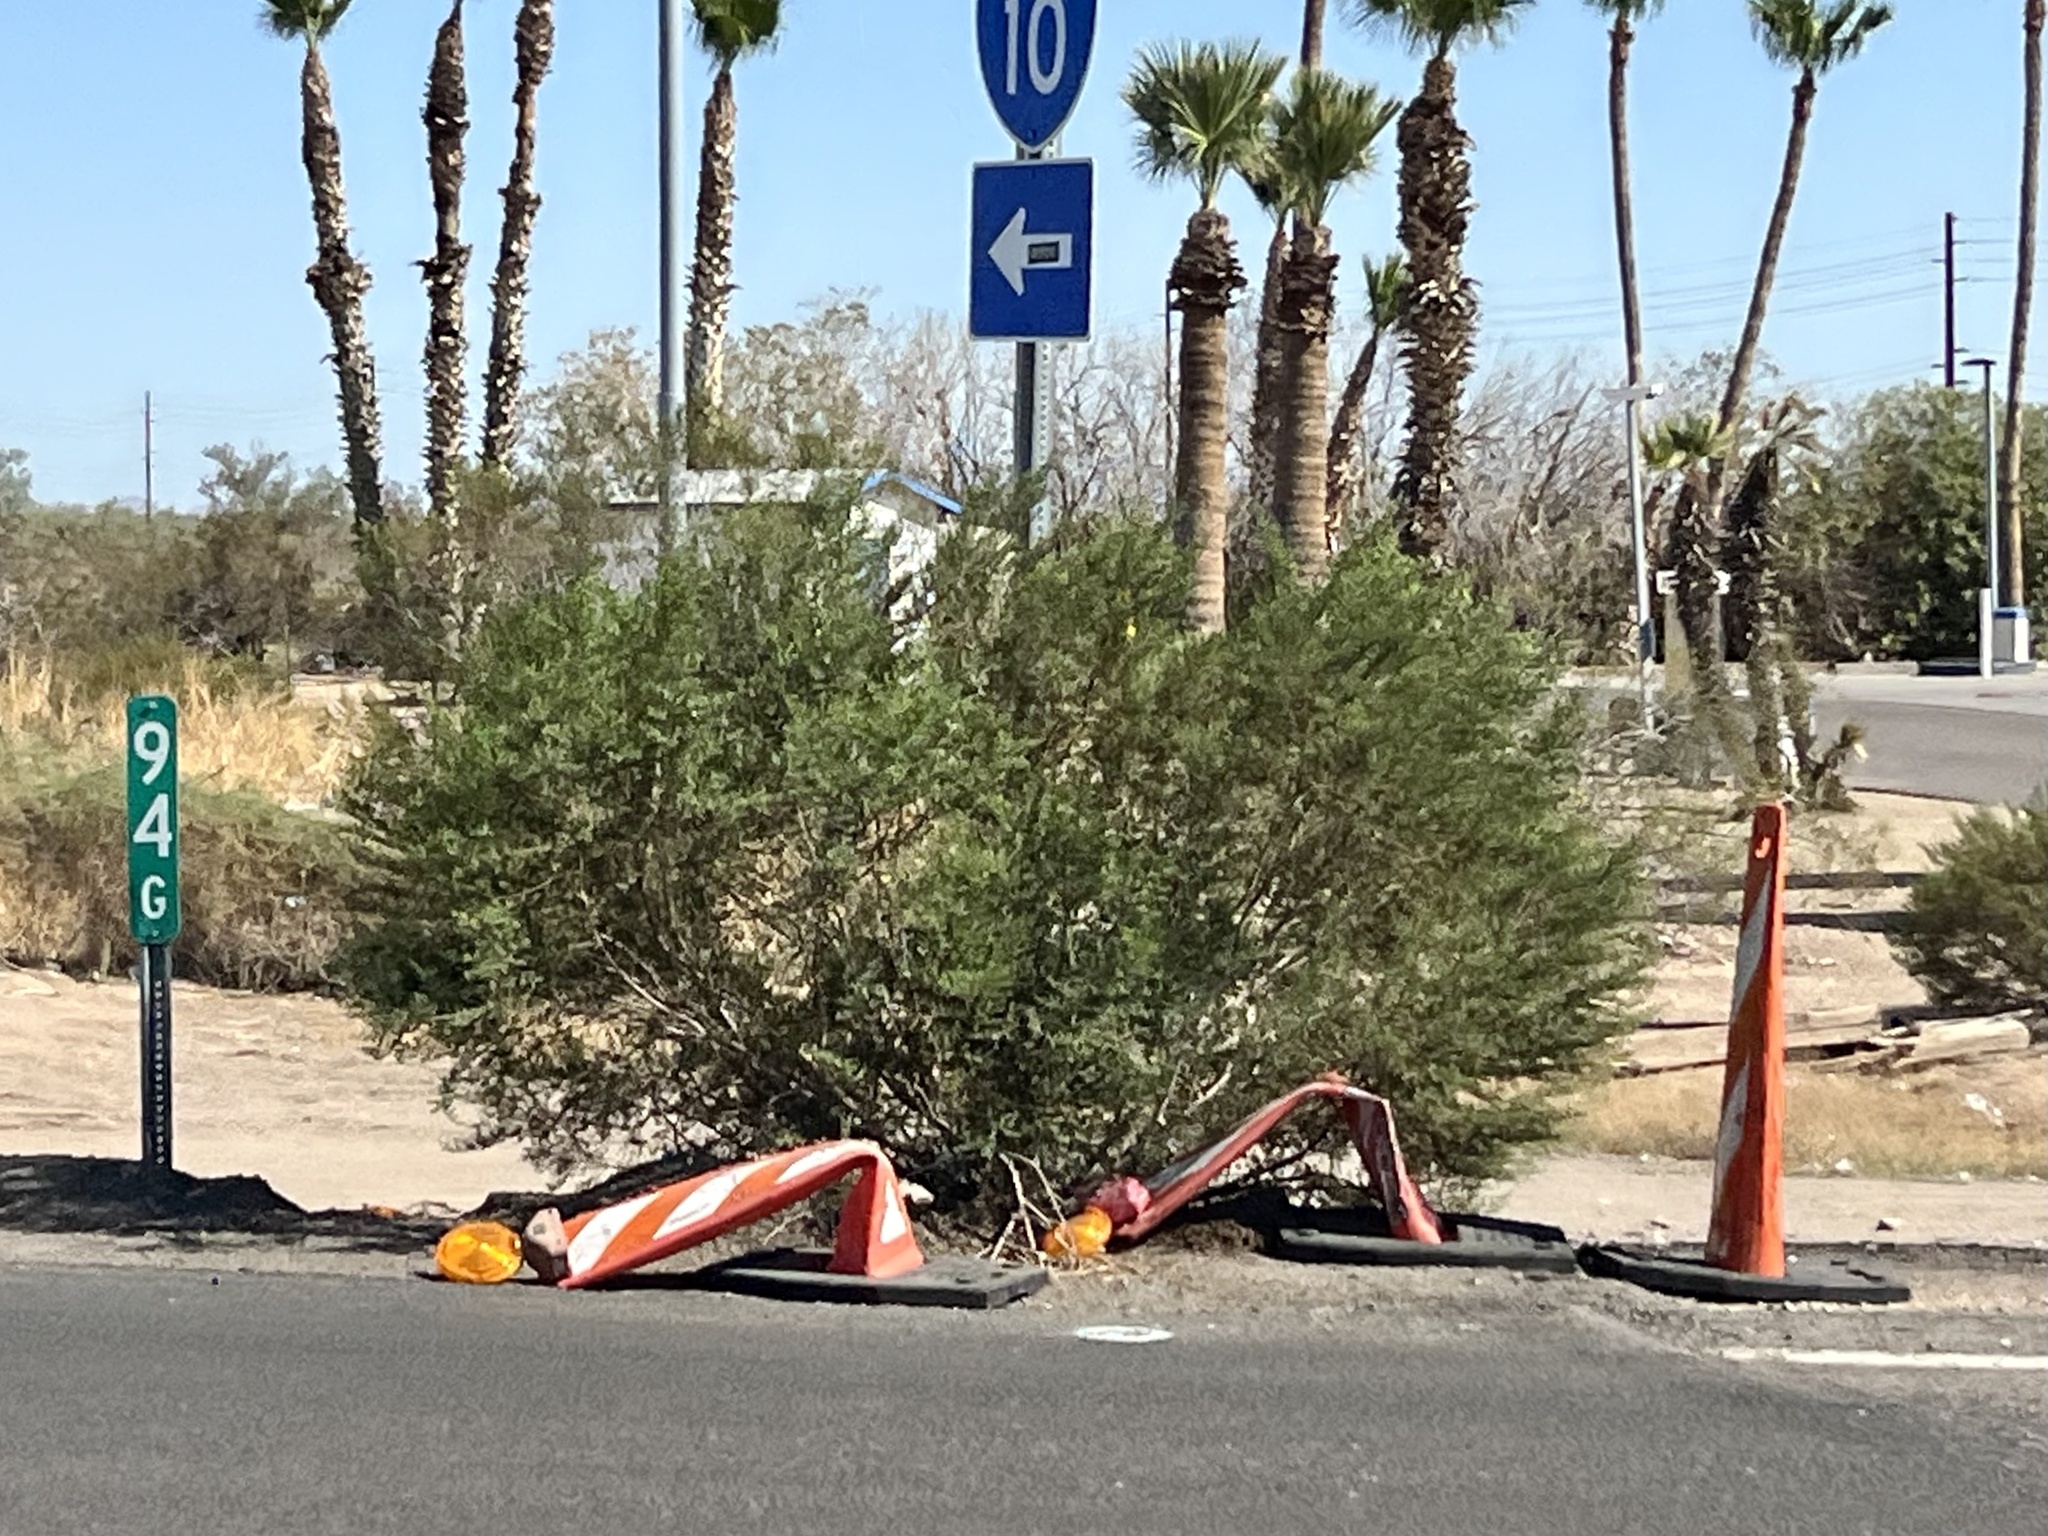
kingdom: Plantae
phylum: Tracheophyta
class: Magnoliopsida
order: Zygophyllales
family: Zygophyllaceae
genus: Larrea
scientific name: Larrea tridentata
